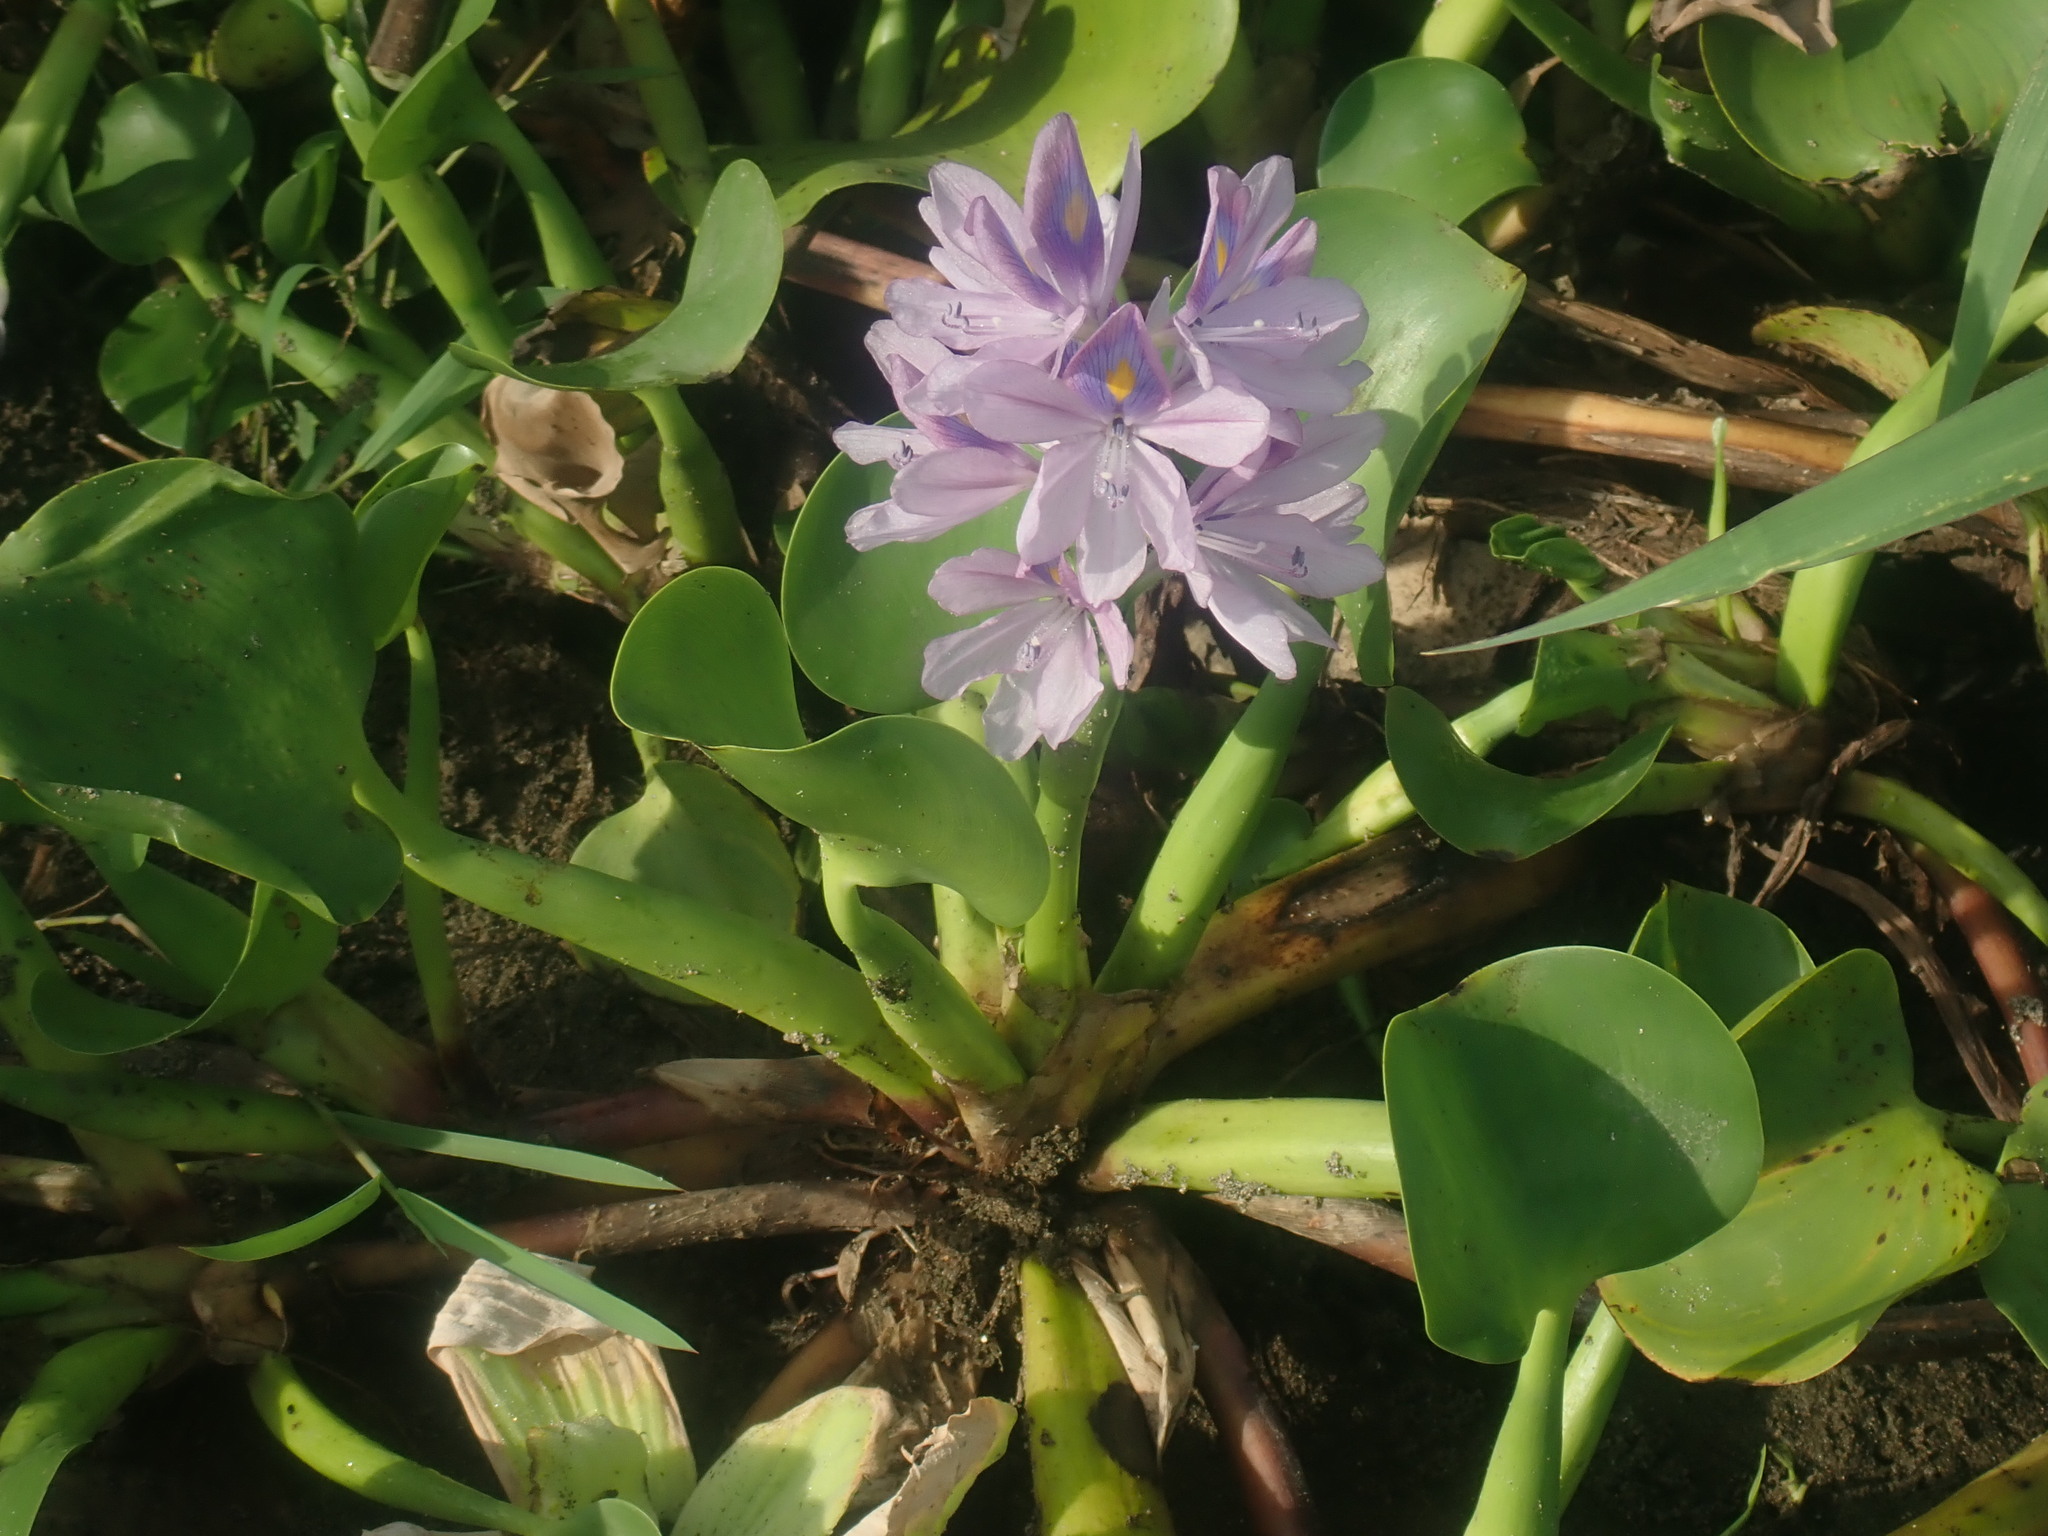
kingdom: Plantae
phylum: Tracheophyta
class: Liliopsida
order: Commelinales
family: Pontederiaceae
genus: Pontederia
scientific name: Pontederia crassipes
